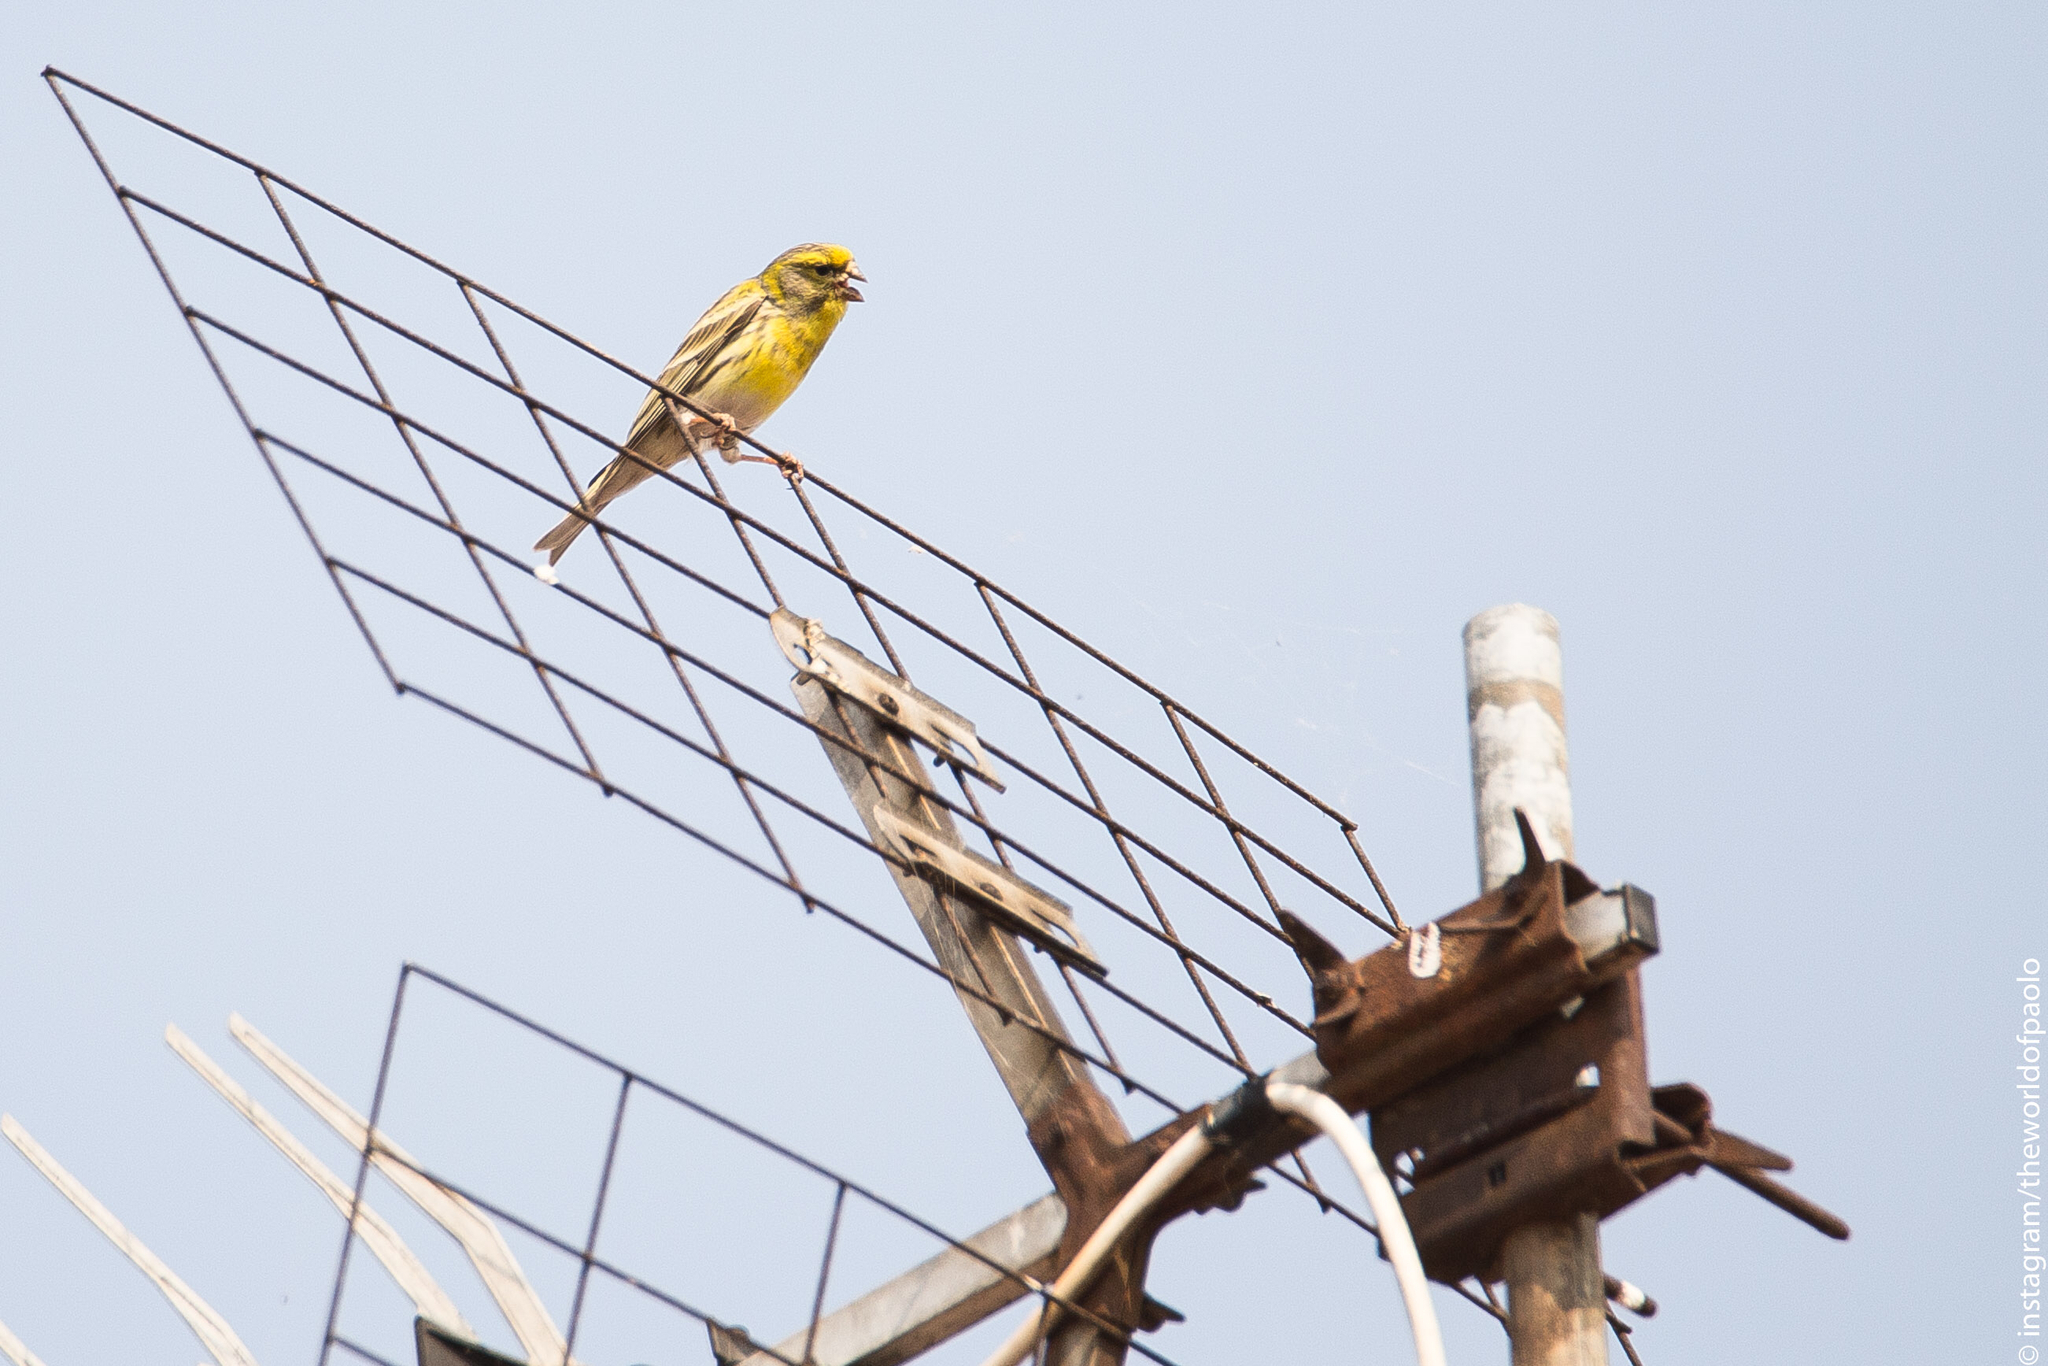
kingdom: Animalia
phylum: Chordata
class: Aves
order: Passeriformes
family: Fringillidae
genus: Serinus
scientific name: Serinus serinus
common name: European serin
